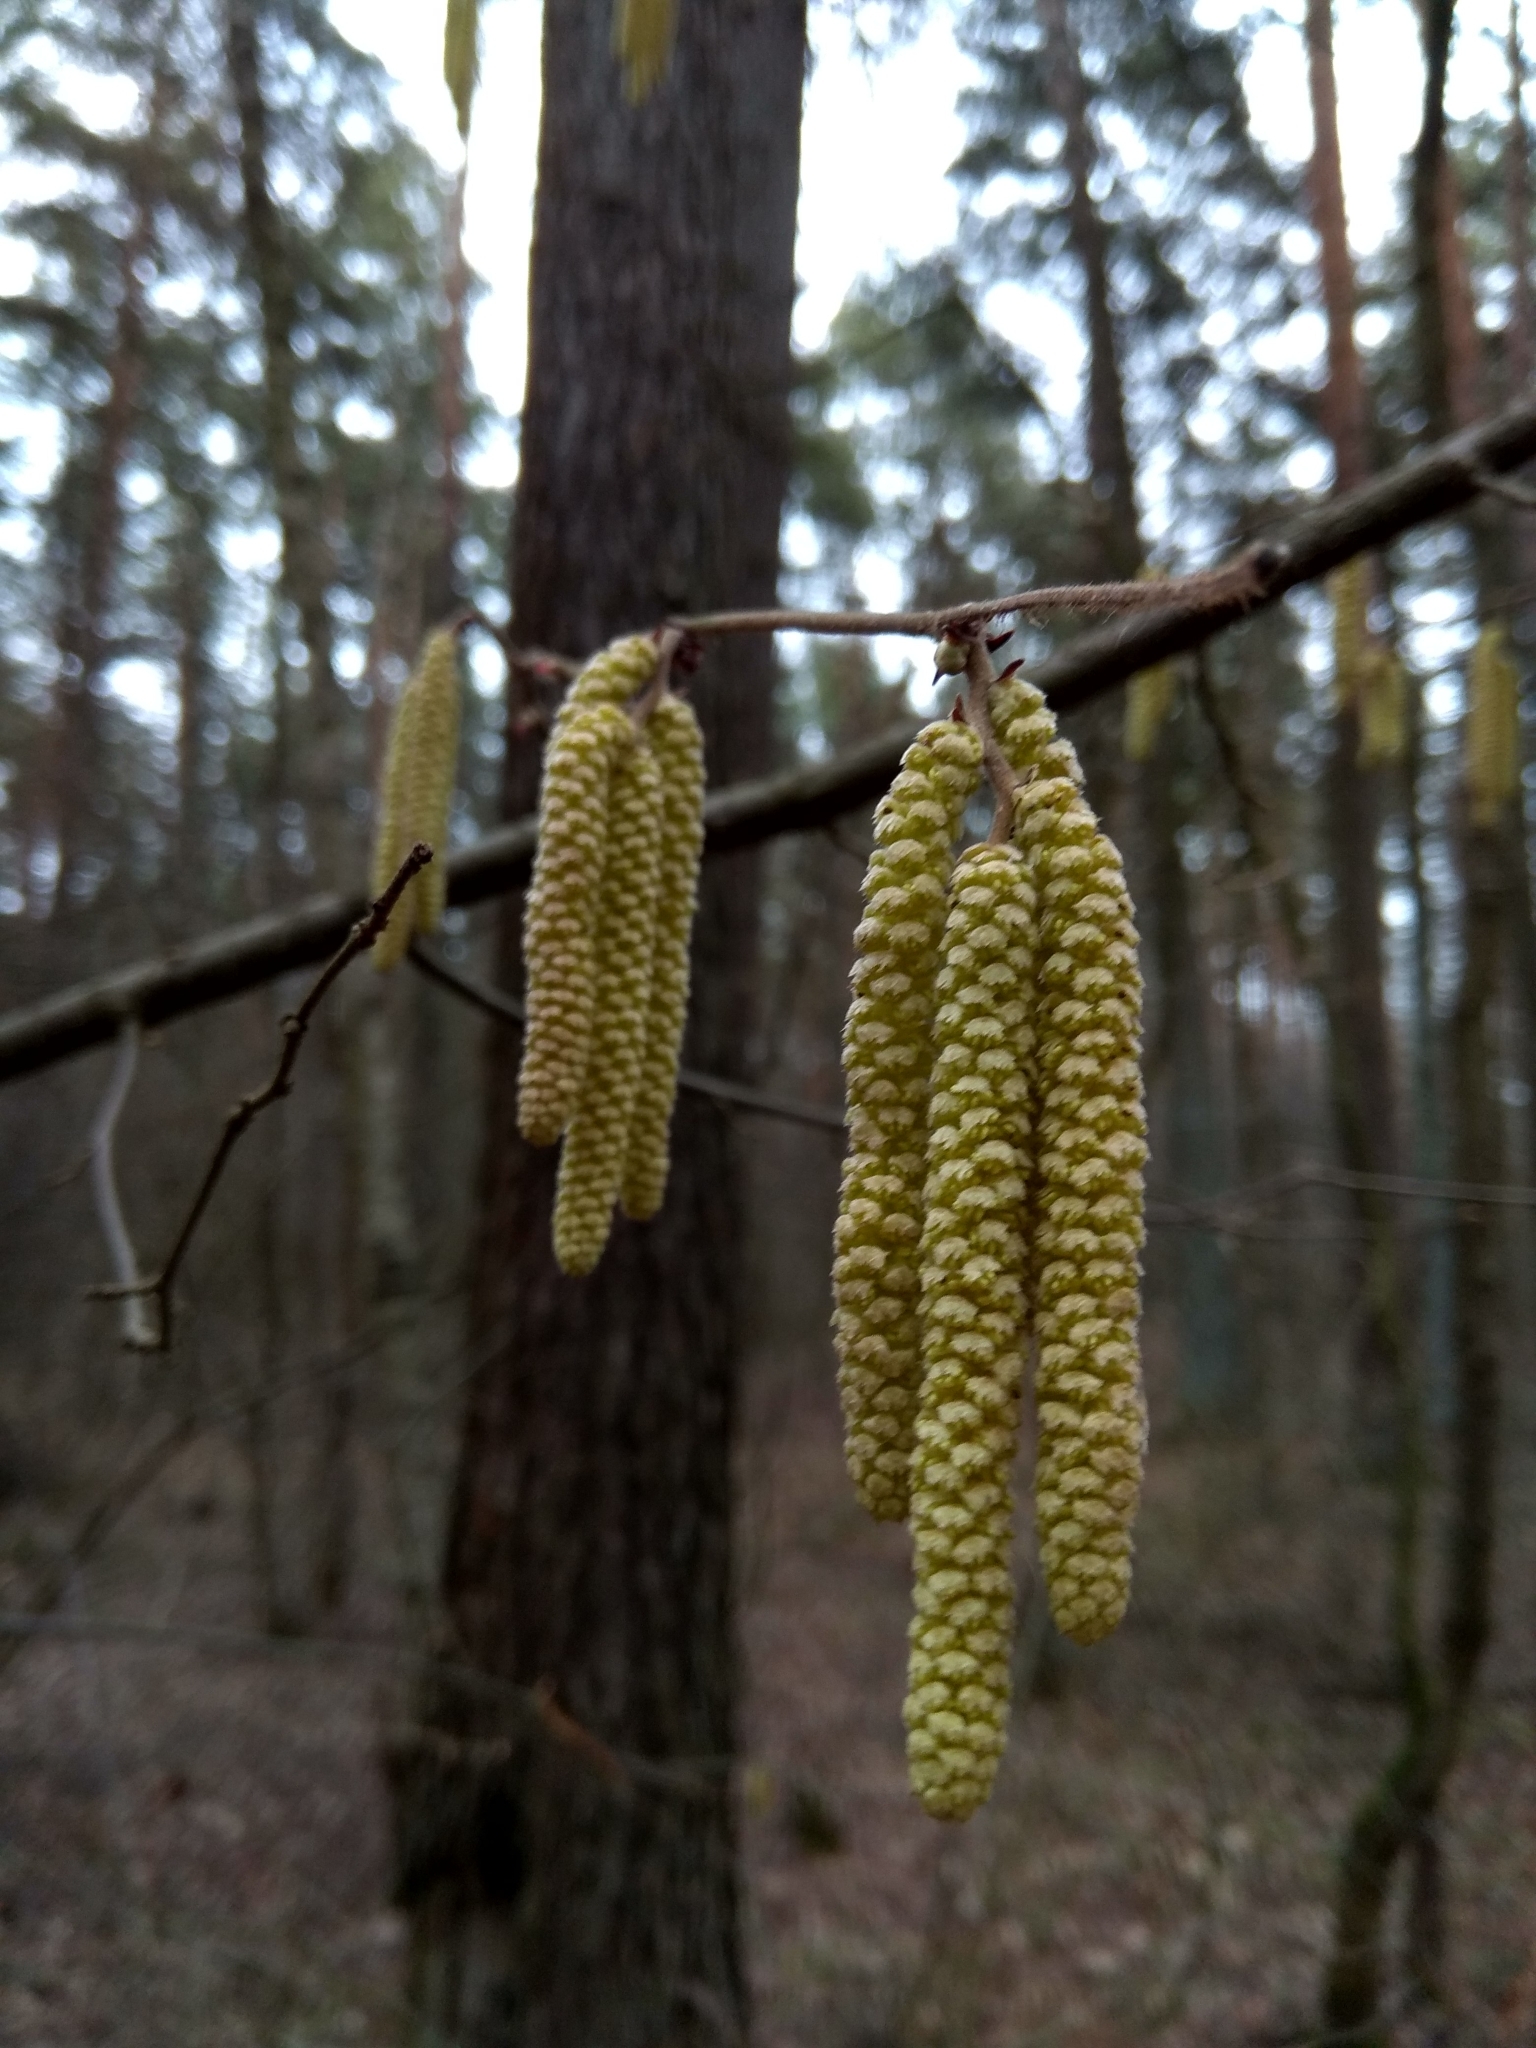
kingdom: Plantae
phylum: Tracheophyta
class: Magnoliopsida
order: Fagales
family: Betulaceae
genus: Corylus
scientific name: Corylus avellana
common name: European hazel
